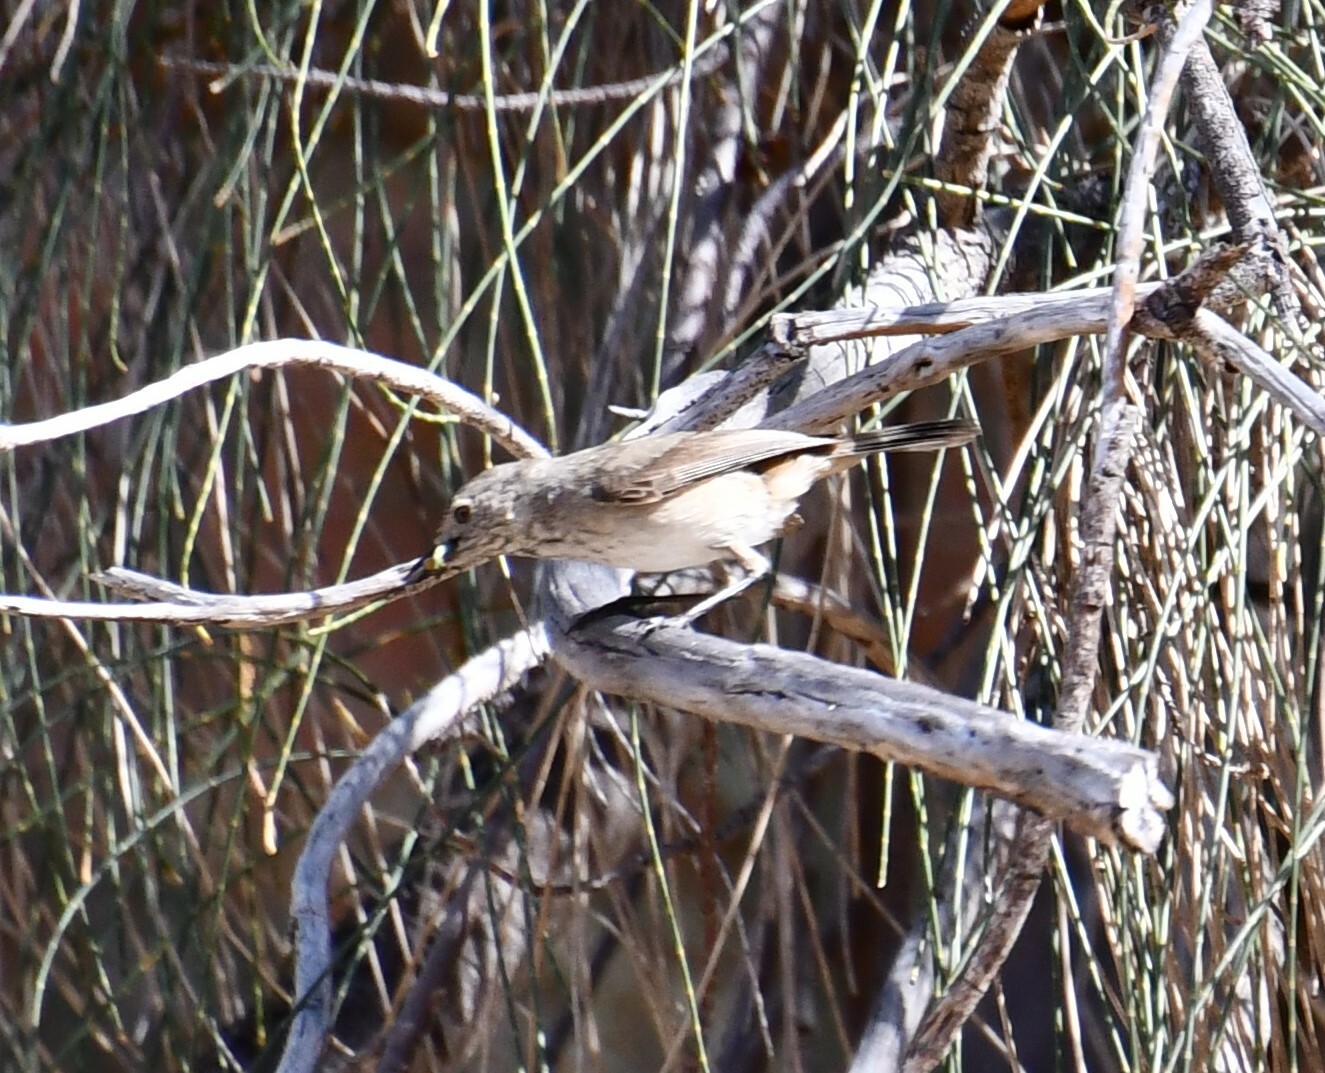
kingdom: Animalia
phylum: Chordata
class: Aves
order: Passeriformes
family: Acanthizidae
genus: Acanthiza
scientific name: Acanthiza apicalis
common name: Inland thornbill
